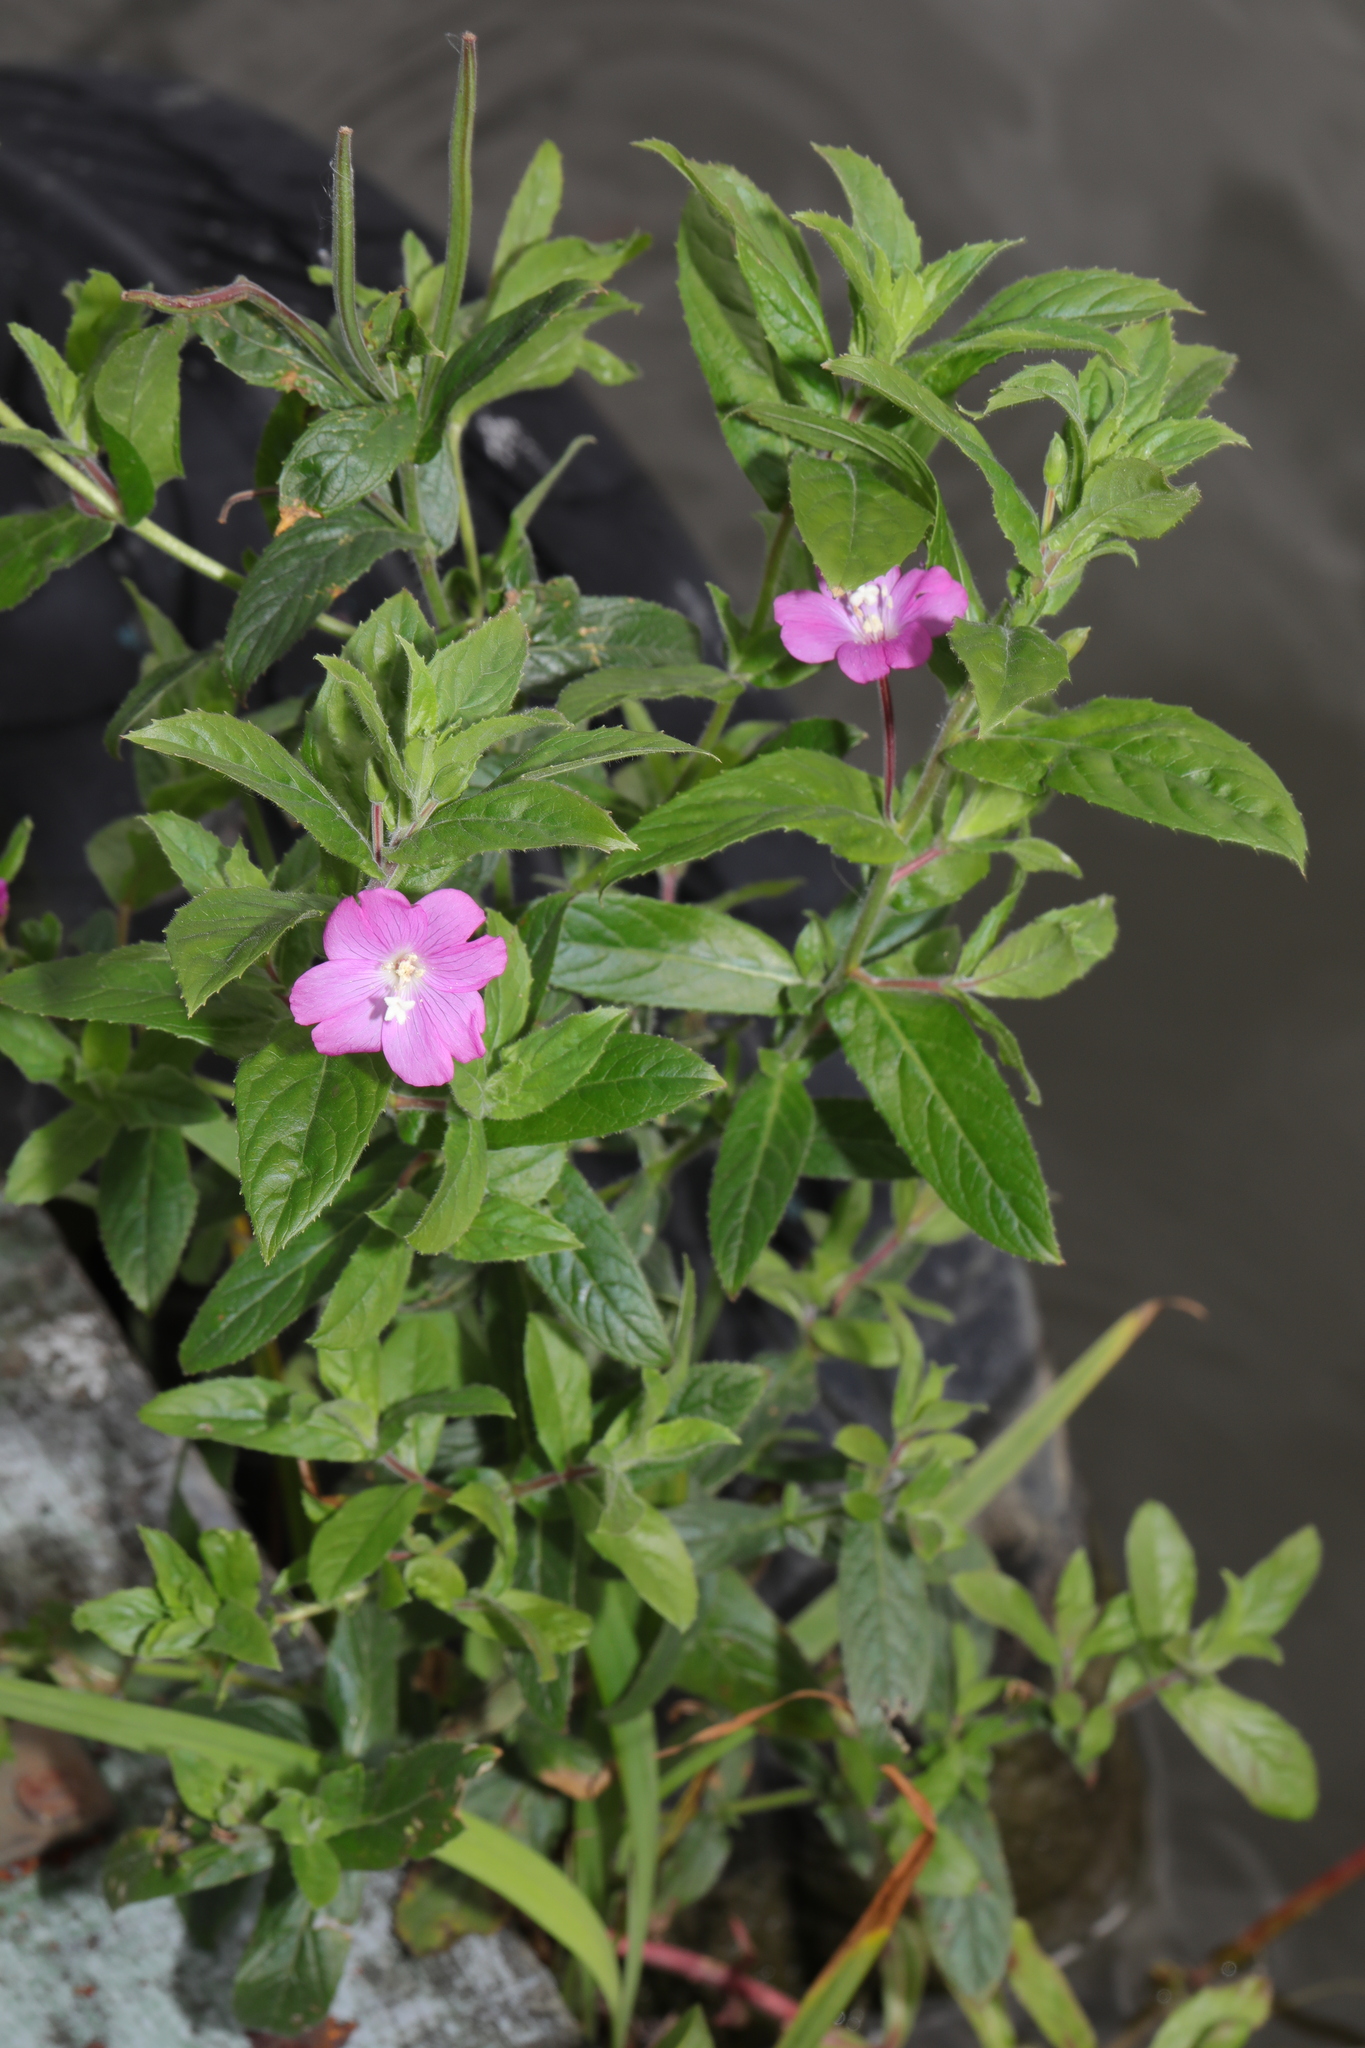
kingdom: Plantae
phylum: Tracheophyta
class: Magnoliopsida
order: Myrtales
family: Onagraceae
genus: Epilobium
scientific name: Epilobium hirsutum
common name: Great willowherb
